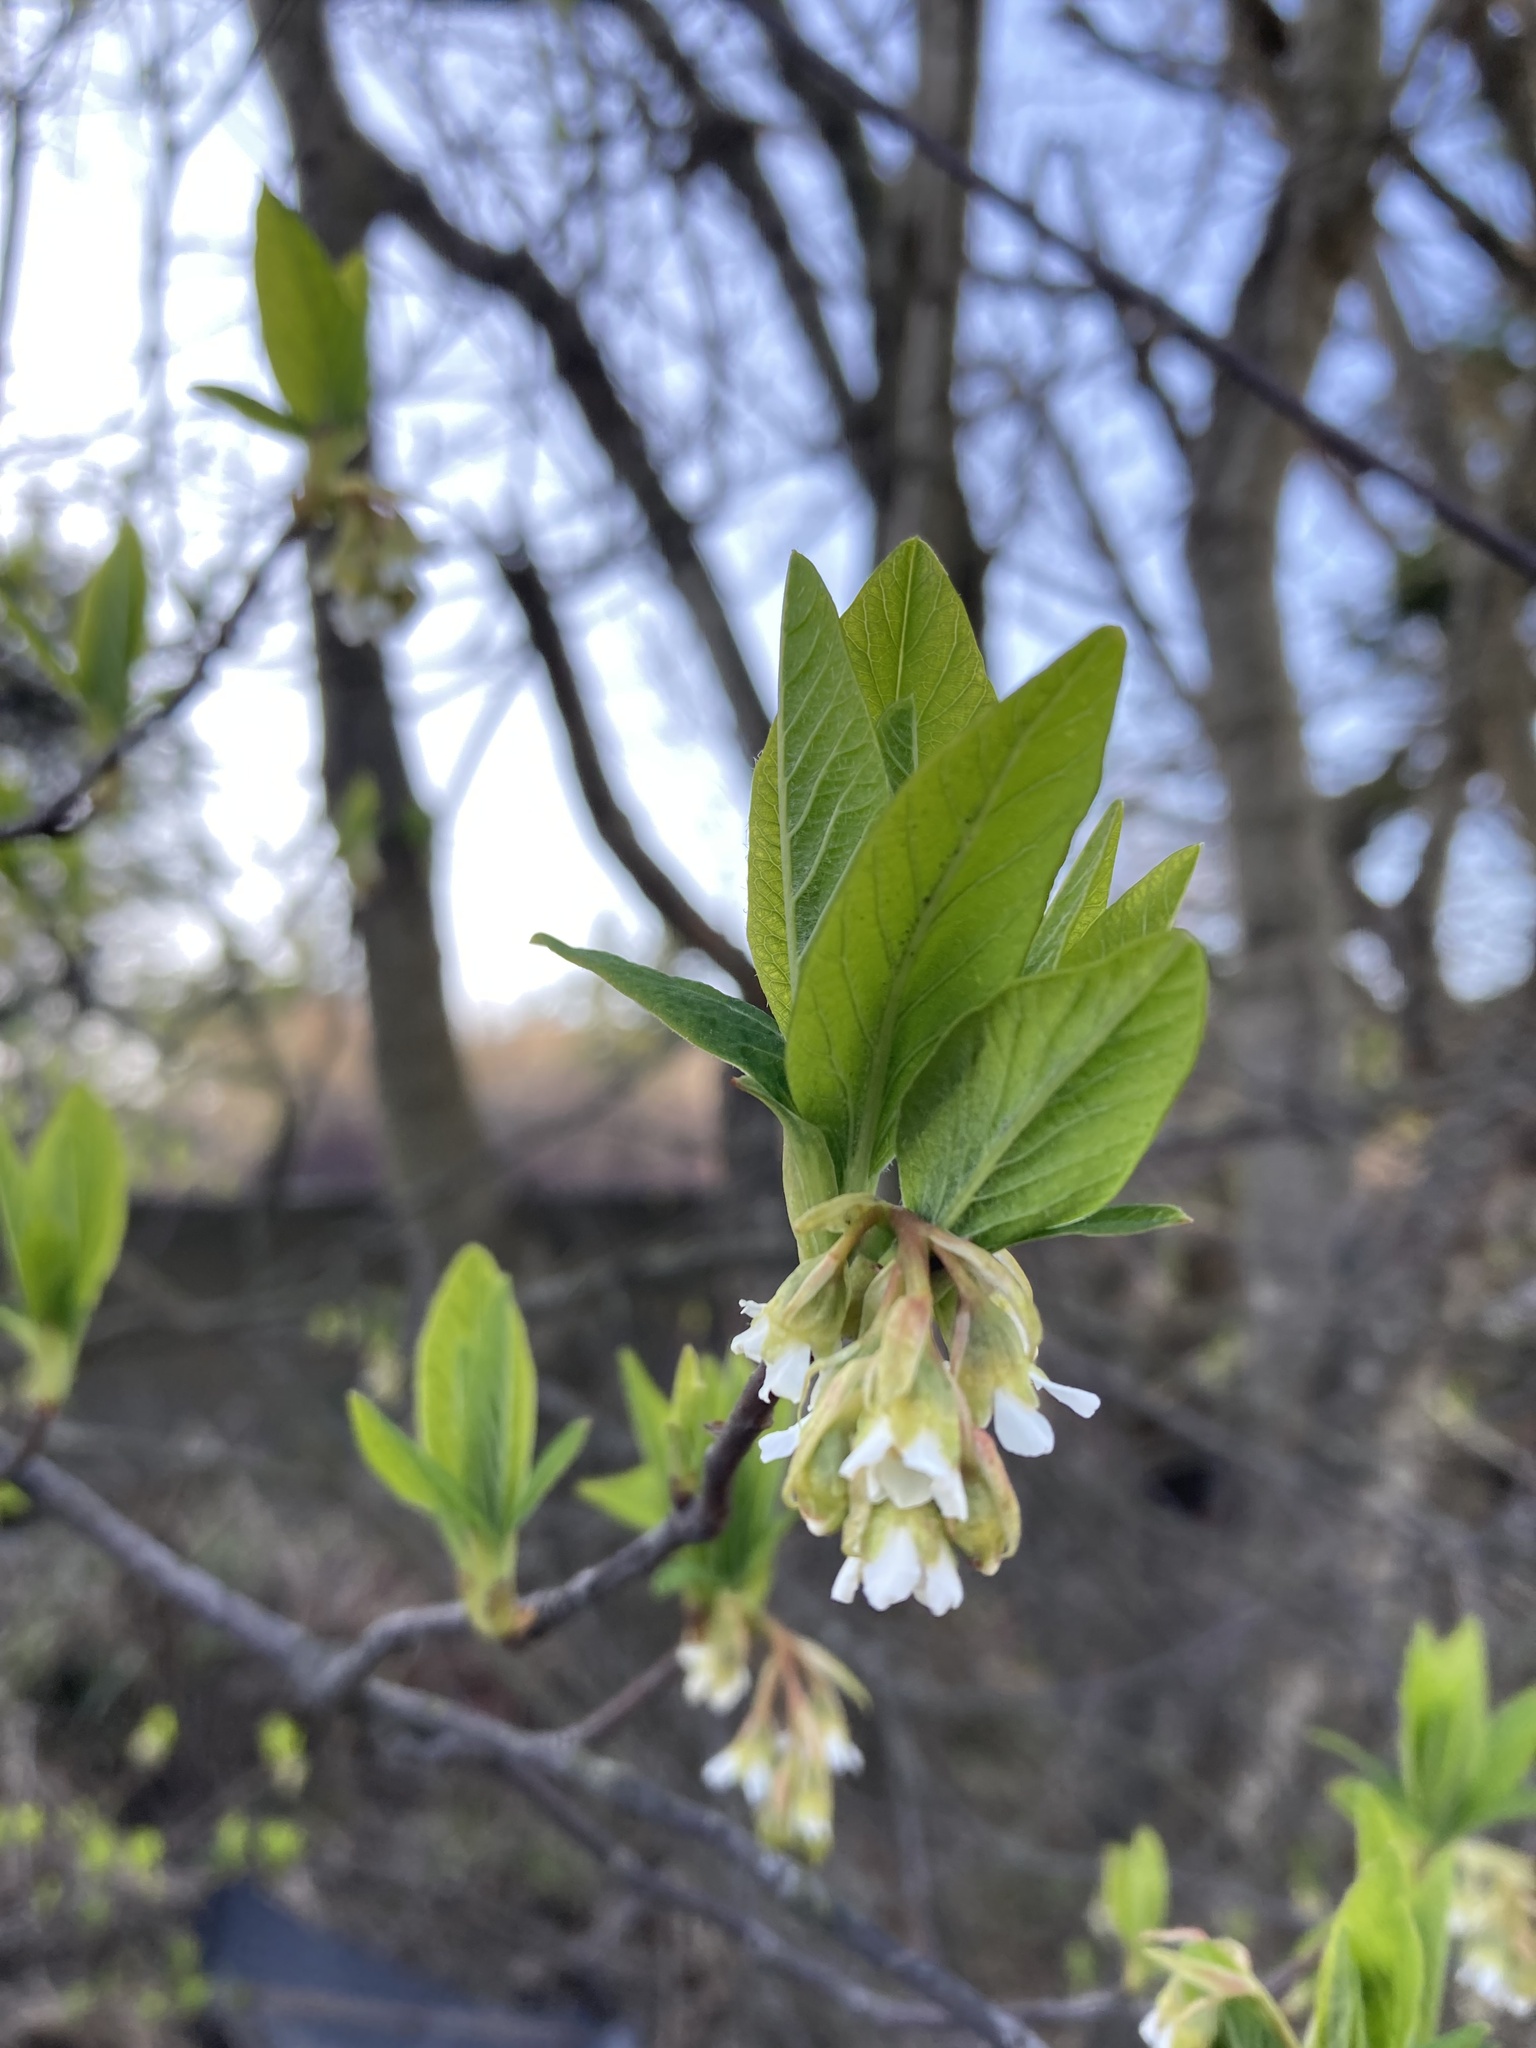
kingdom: Plantae
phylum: Tracheophyta
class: Magnoliopsida
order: Rosales
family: Rosaceae
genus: Oemleria
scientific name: Oemleria cerasiformis
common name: Osoberry
